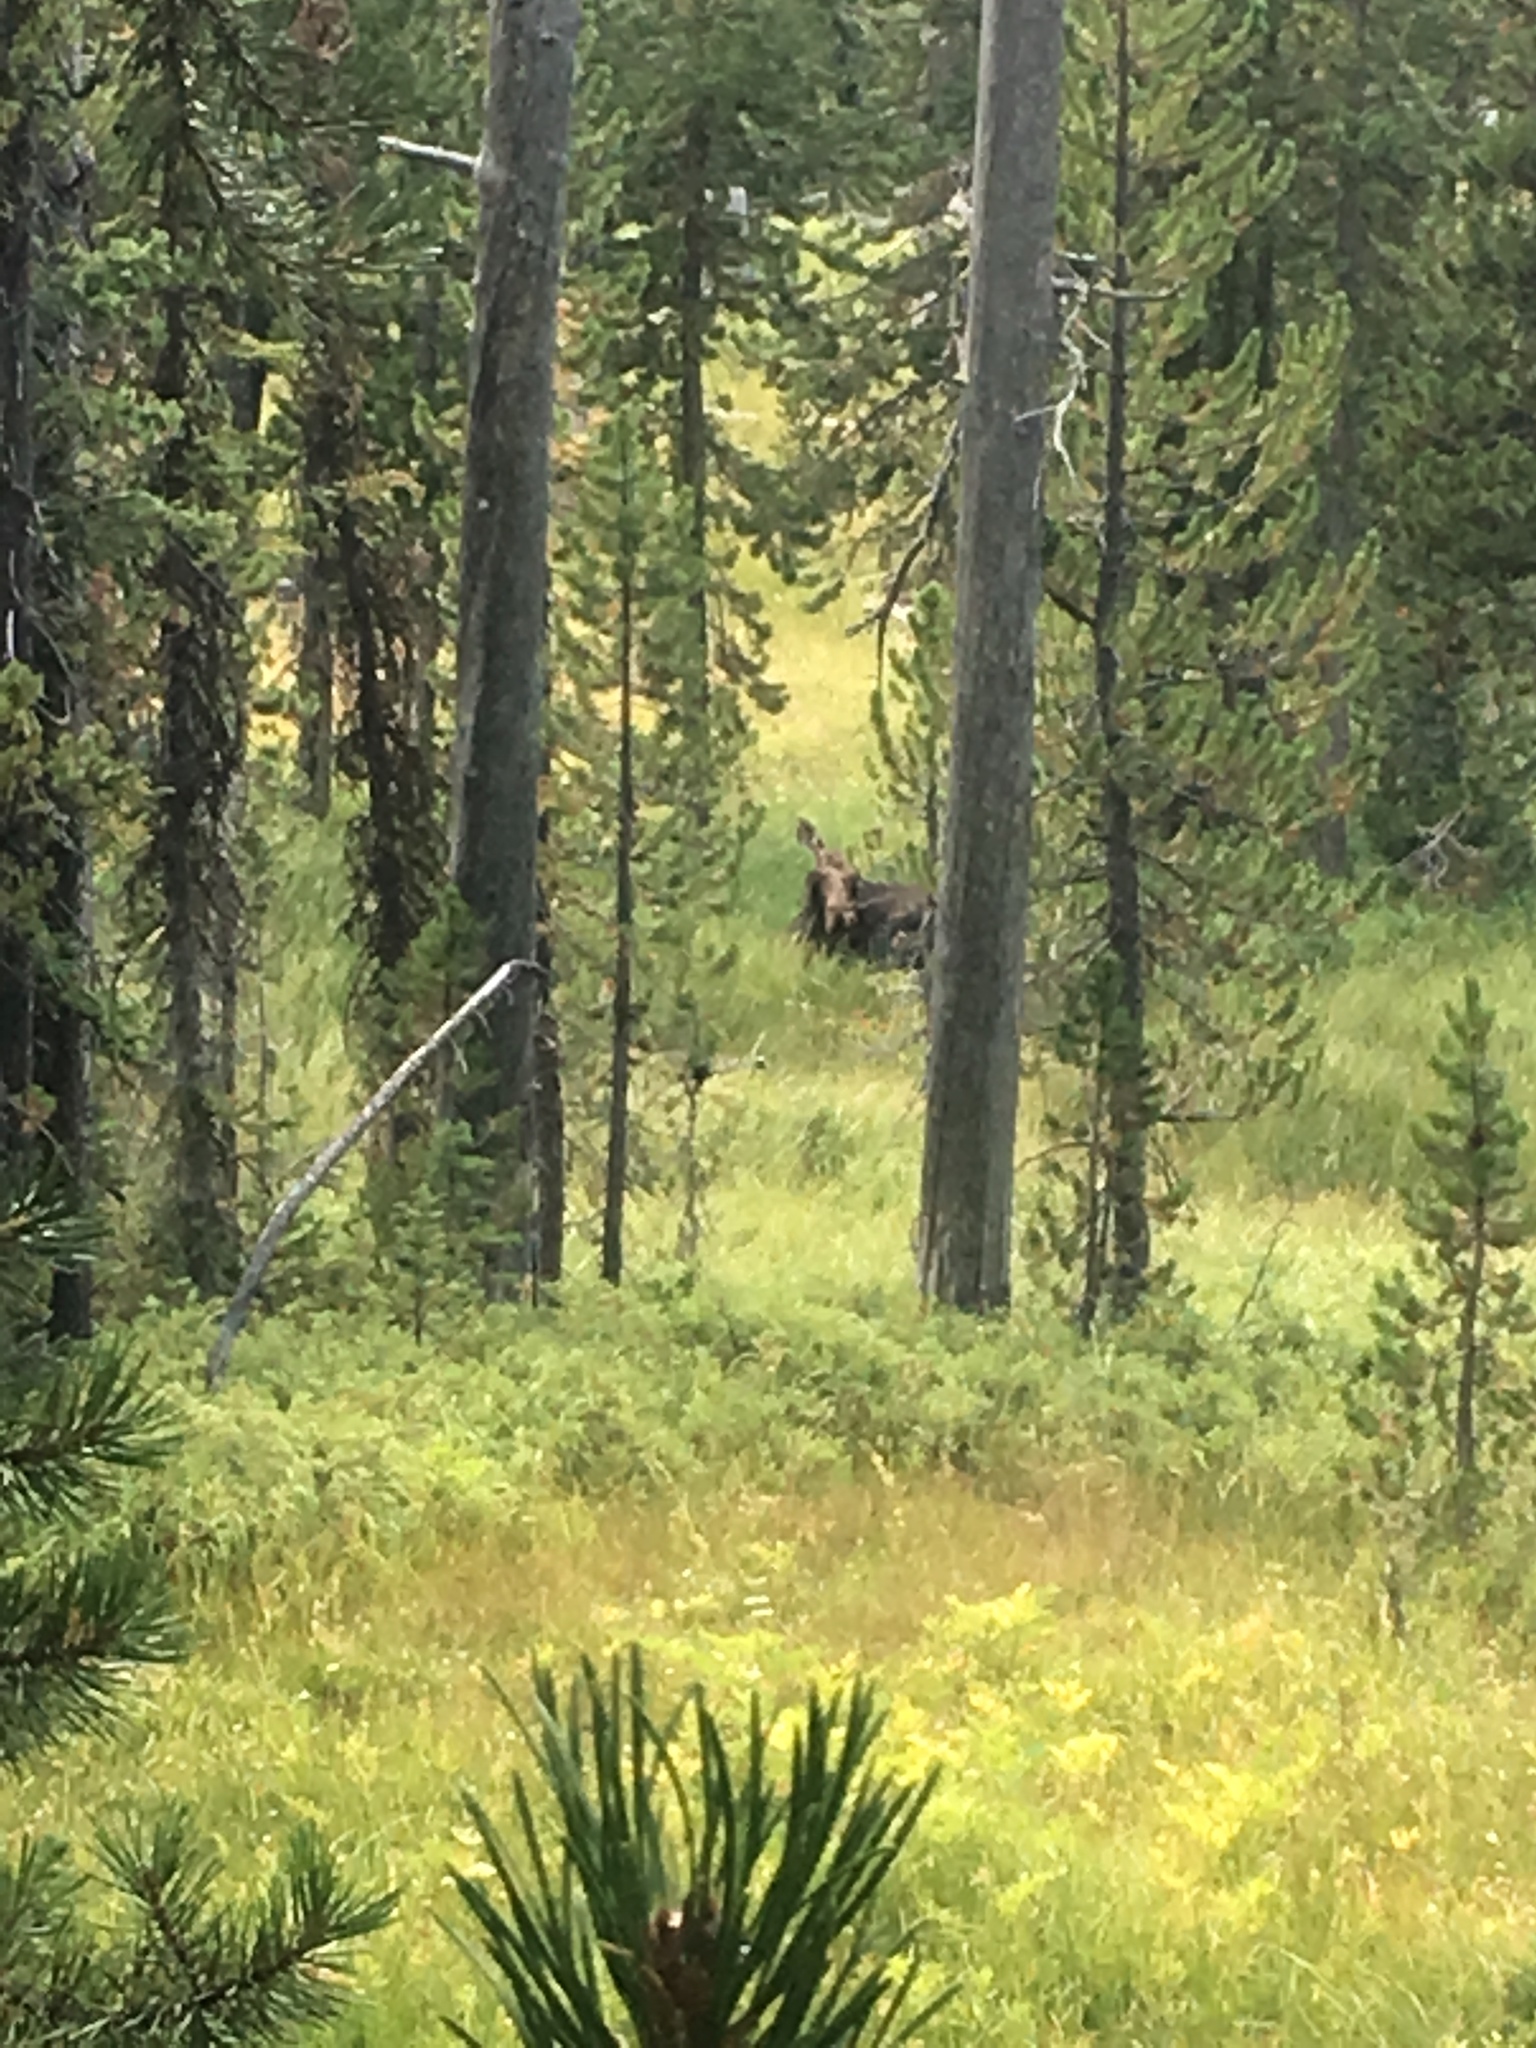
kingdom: Animalia
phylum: Chordata
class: Mammalia
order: Artiodactyla
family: Cervidae
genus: Alces
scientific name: Alces alces
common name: Moose
